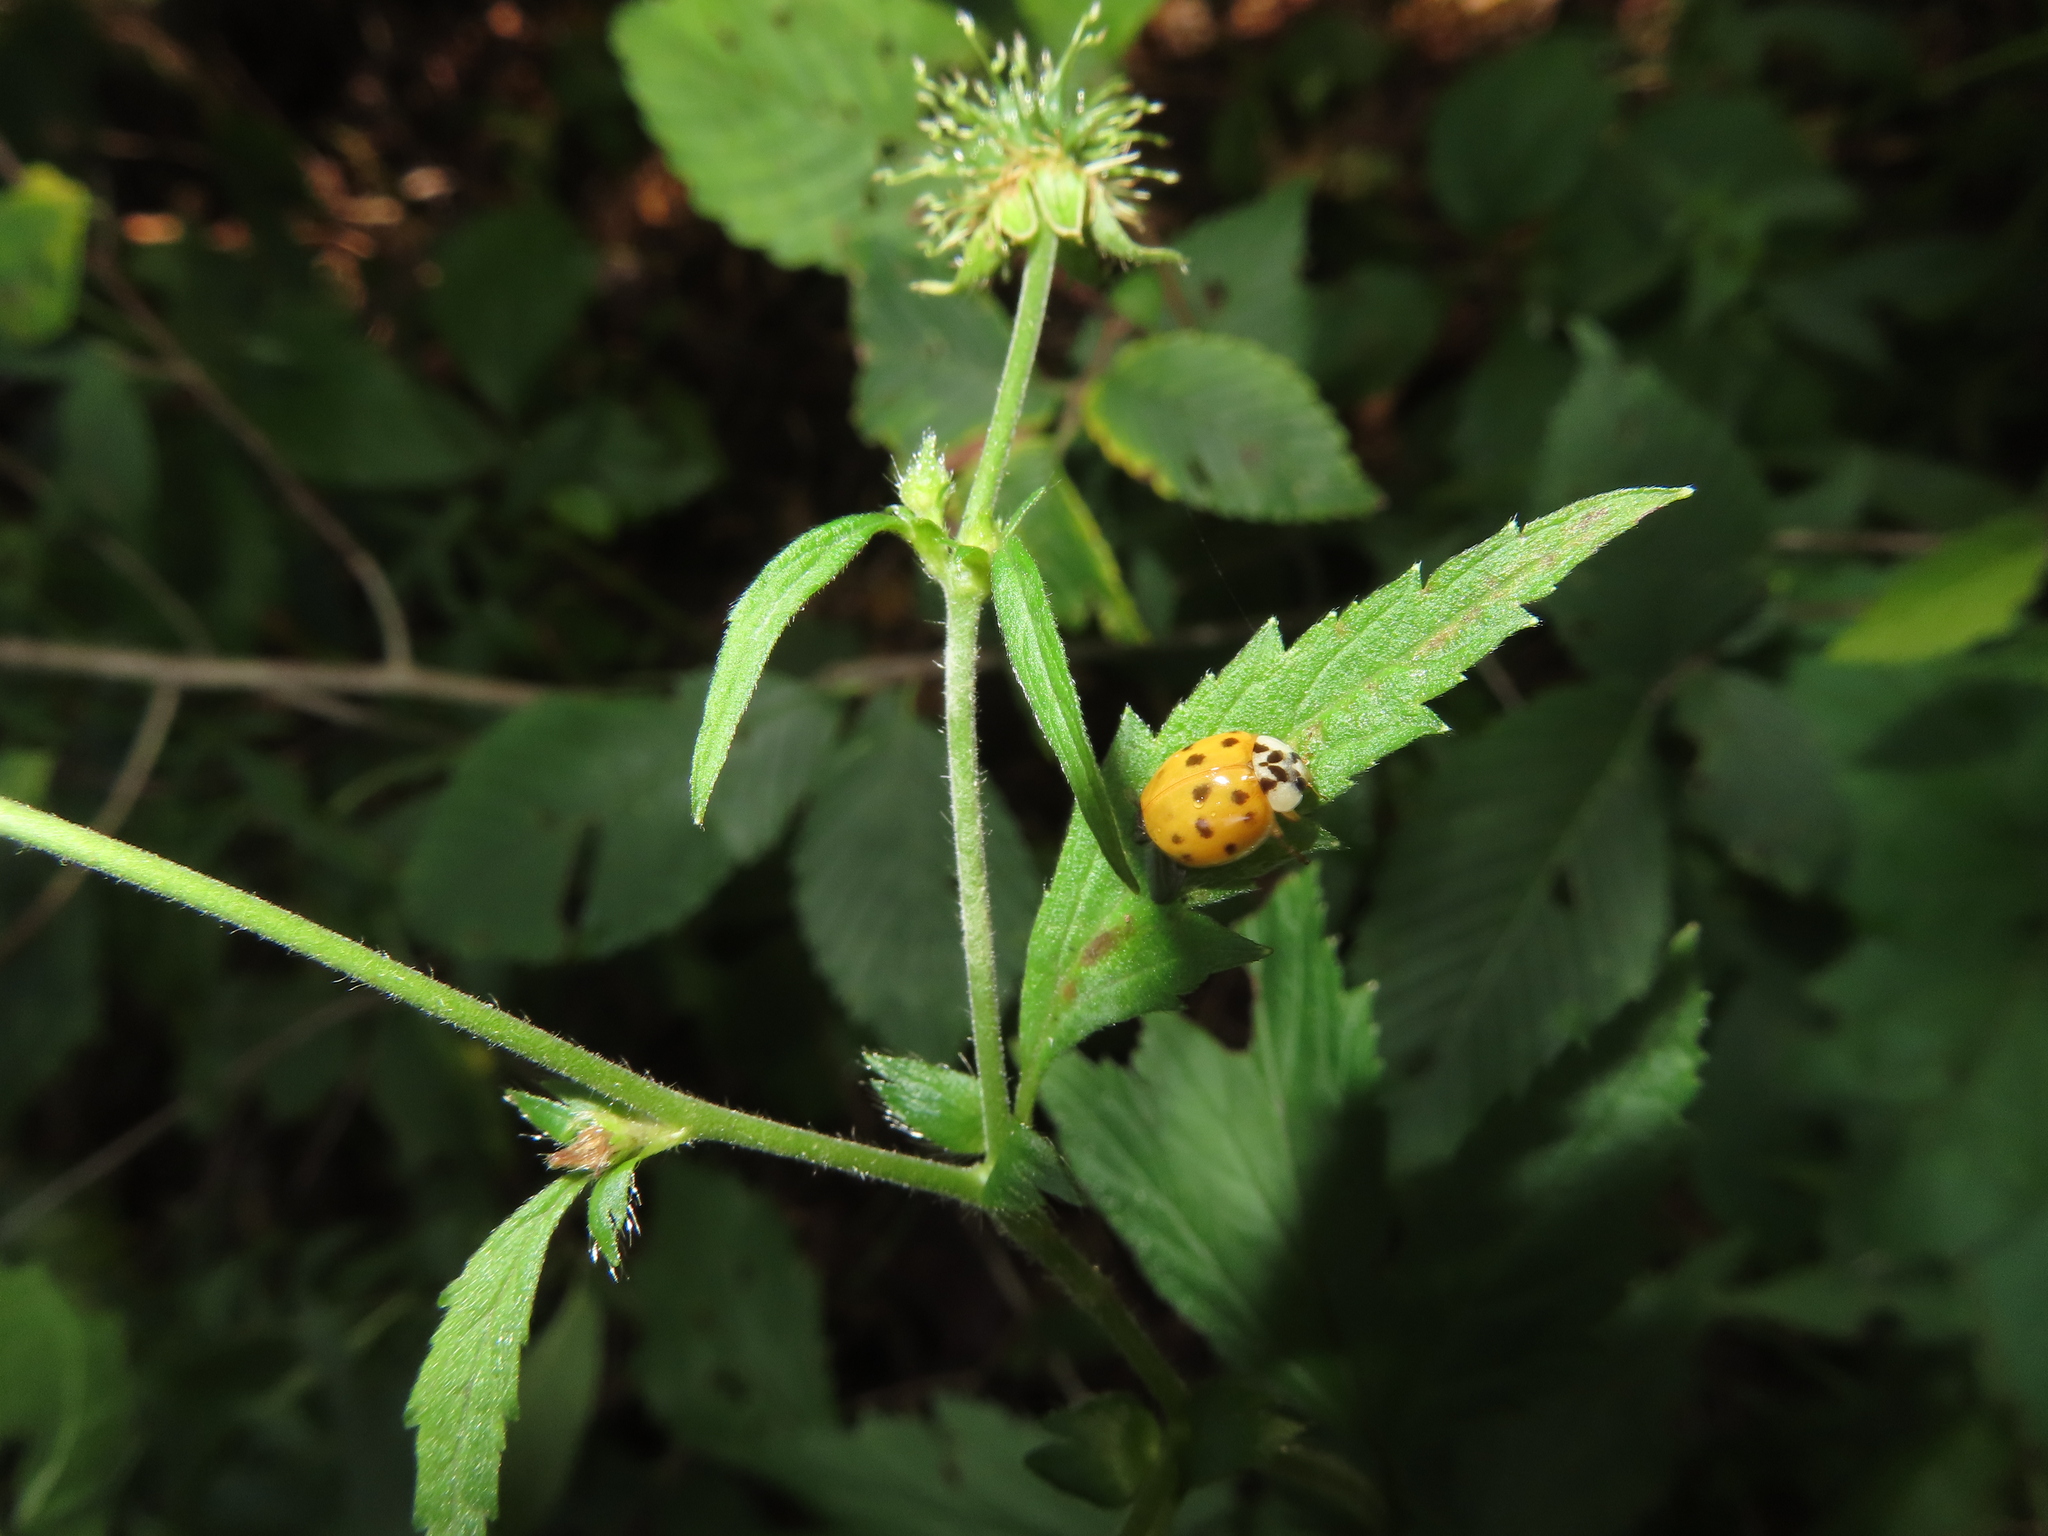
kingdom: Animalia
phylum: Arthropoda
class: Insecta
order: Coleoptera
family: Coccinellidae
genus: Harmonia
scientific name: Harmonia axyridis
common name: Harlequin ladybird
